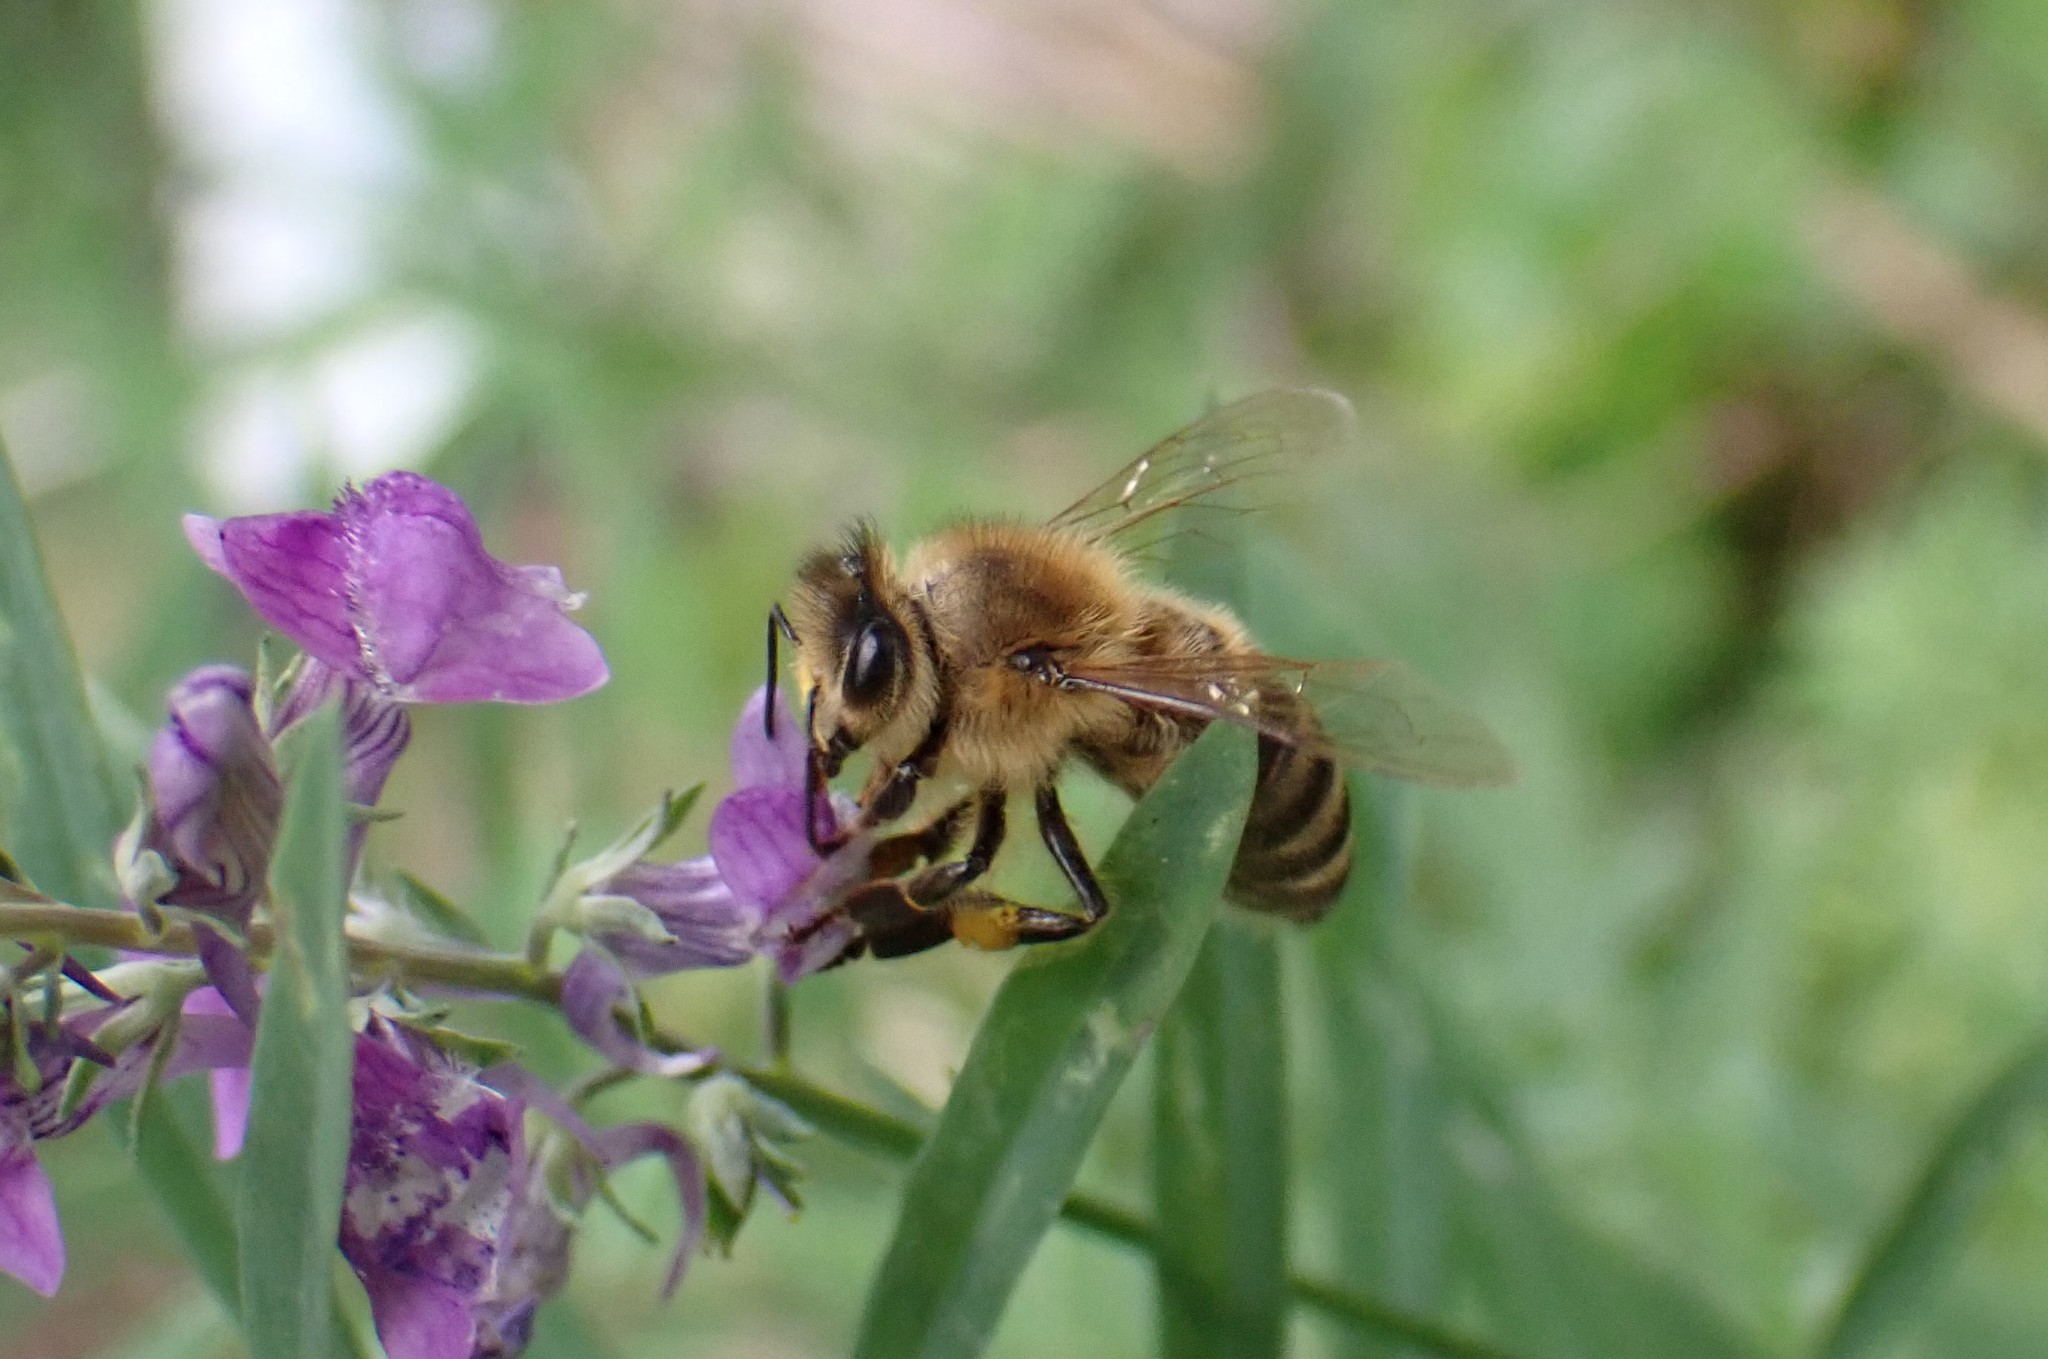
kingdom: Animalia
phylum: Arthropoda
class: Insecta
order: Hymenoptera
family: Apidae
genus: Apis
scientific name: Apis mellifera
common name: Honey bee
